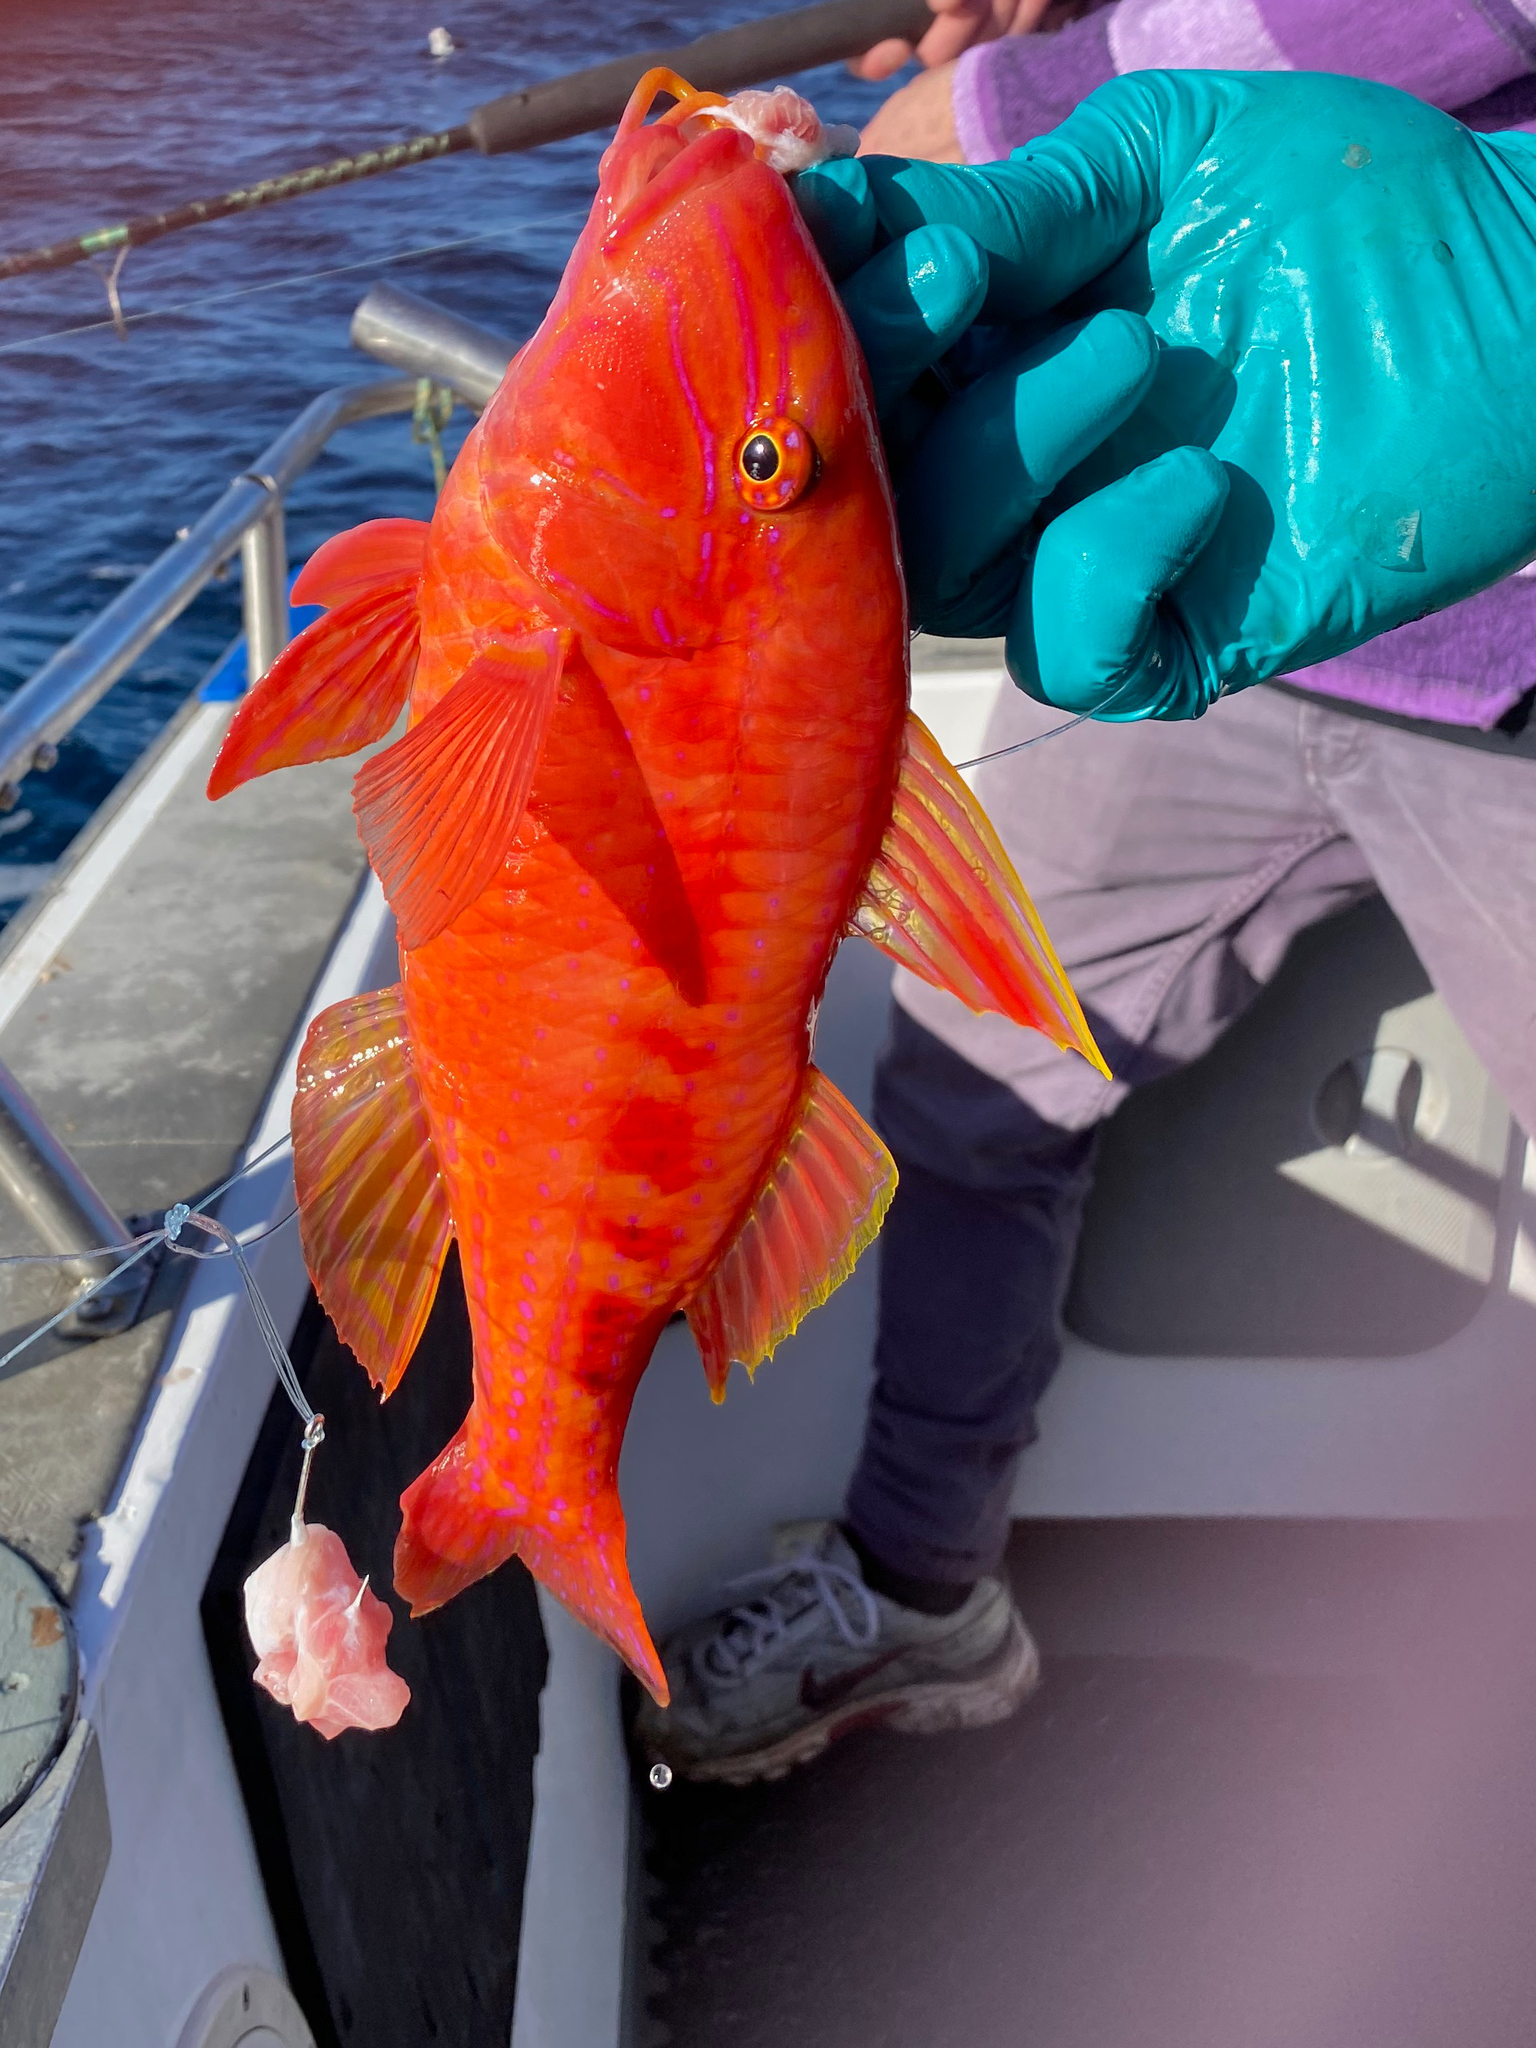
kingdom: Animalia
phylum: Chordata
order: Perciformes
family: Mullidae
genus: Upeneichthys
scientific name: Upeneichthys vlamingii
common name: Red mullet
